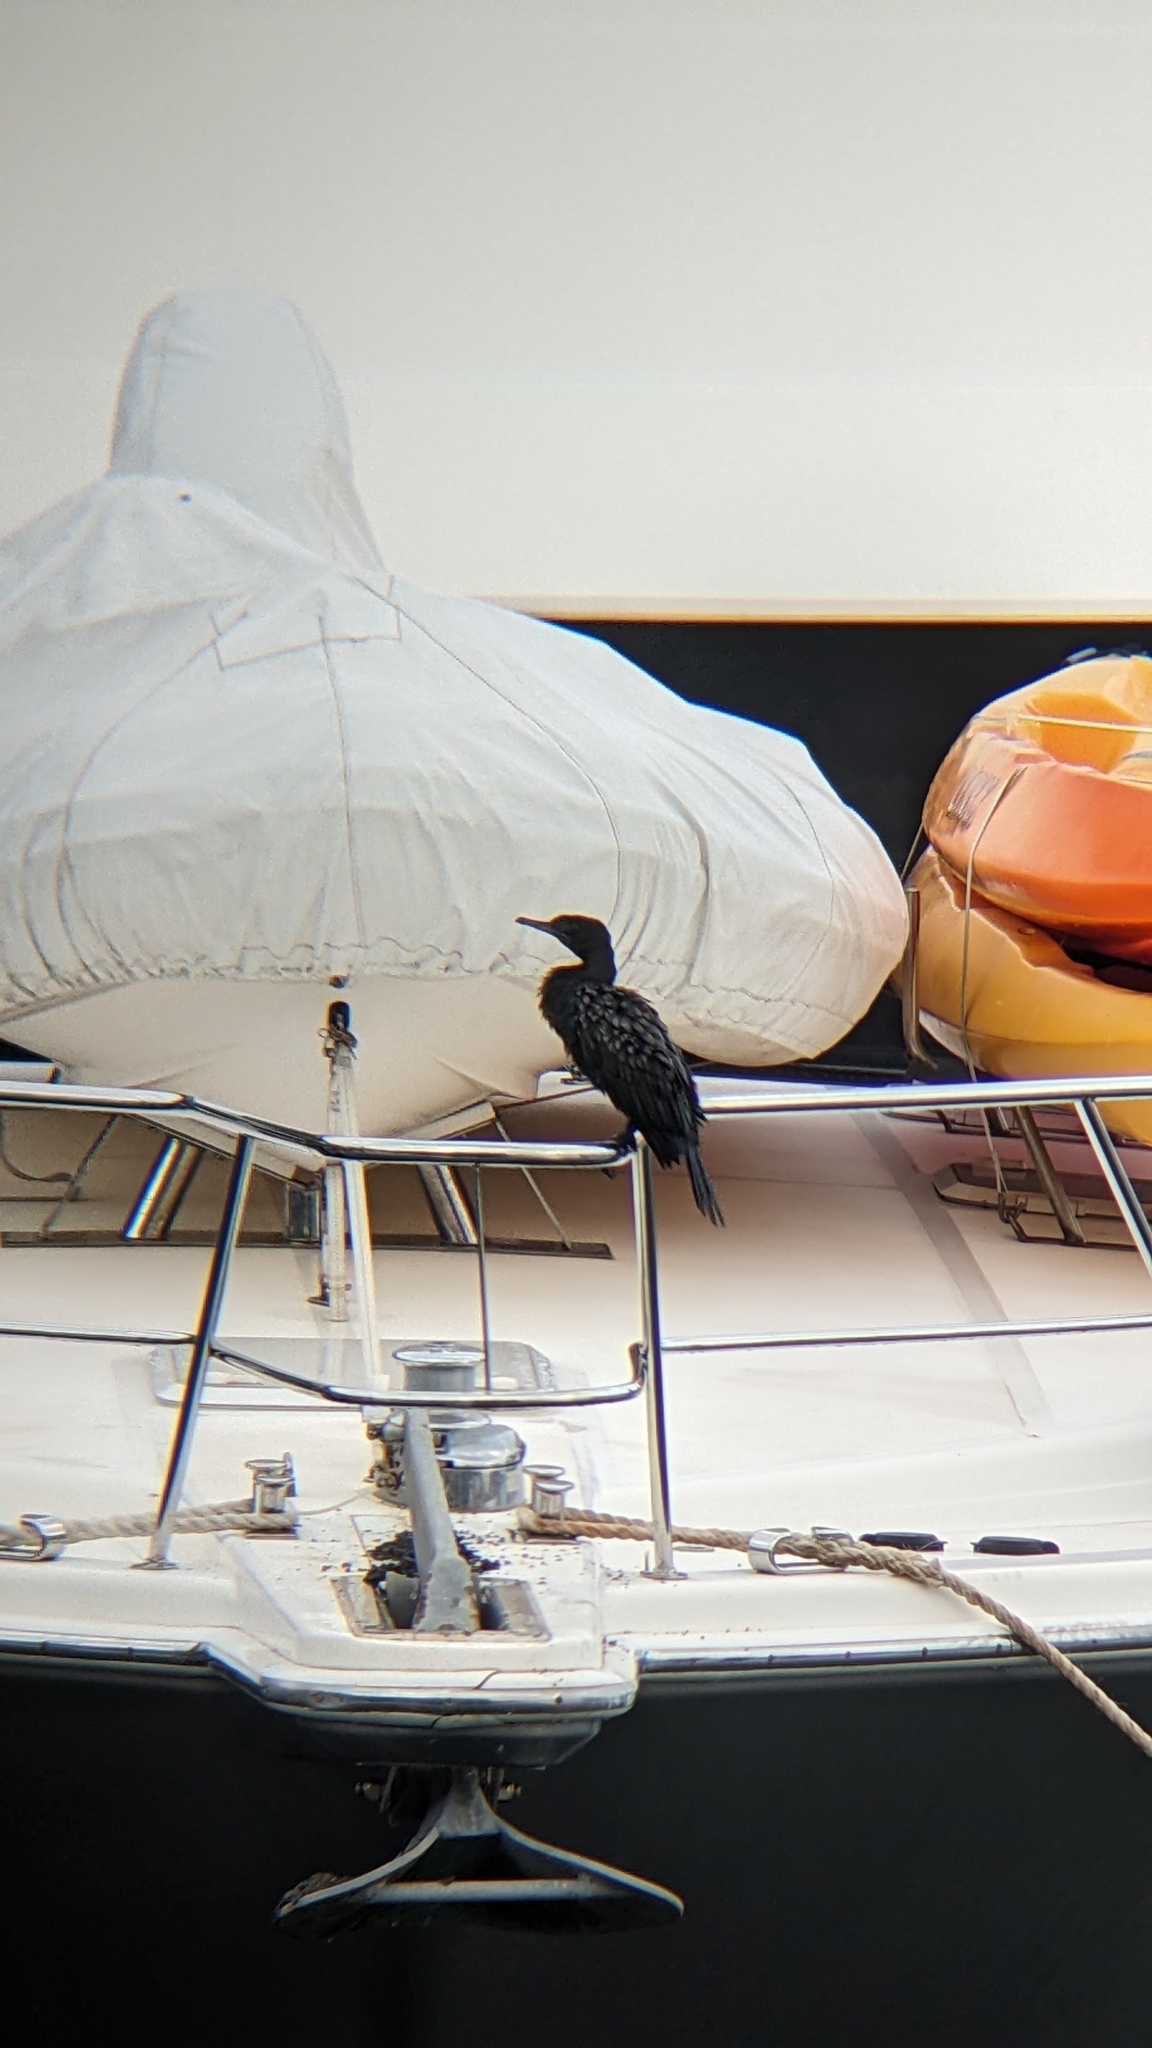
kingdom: Animalia
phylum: Chordata
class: Aves
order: Suliformes
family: Phalacrocoracidae
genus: Phalacrocorax
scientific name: Phalacrocorax sulcirostris
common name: Little black cormorant
